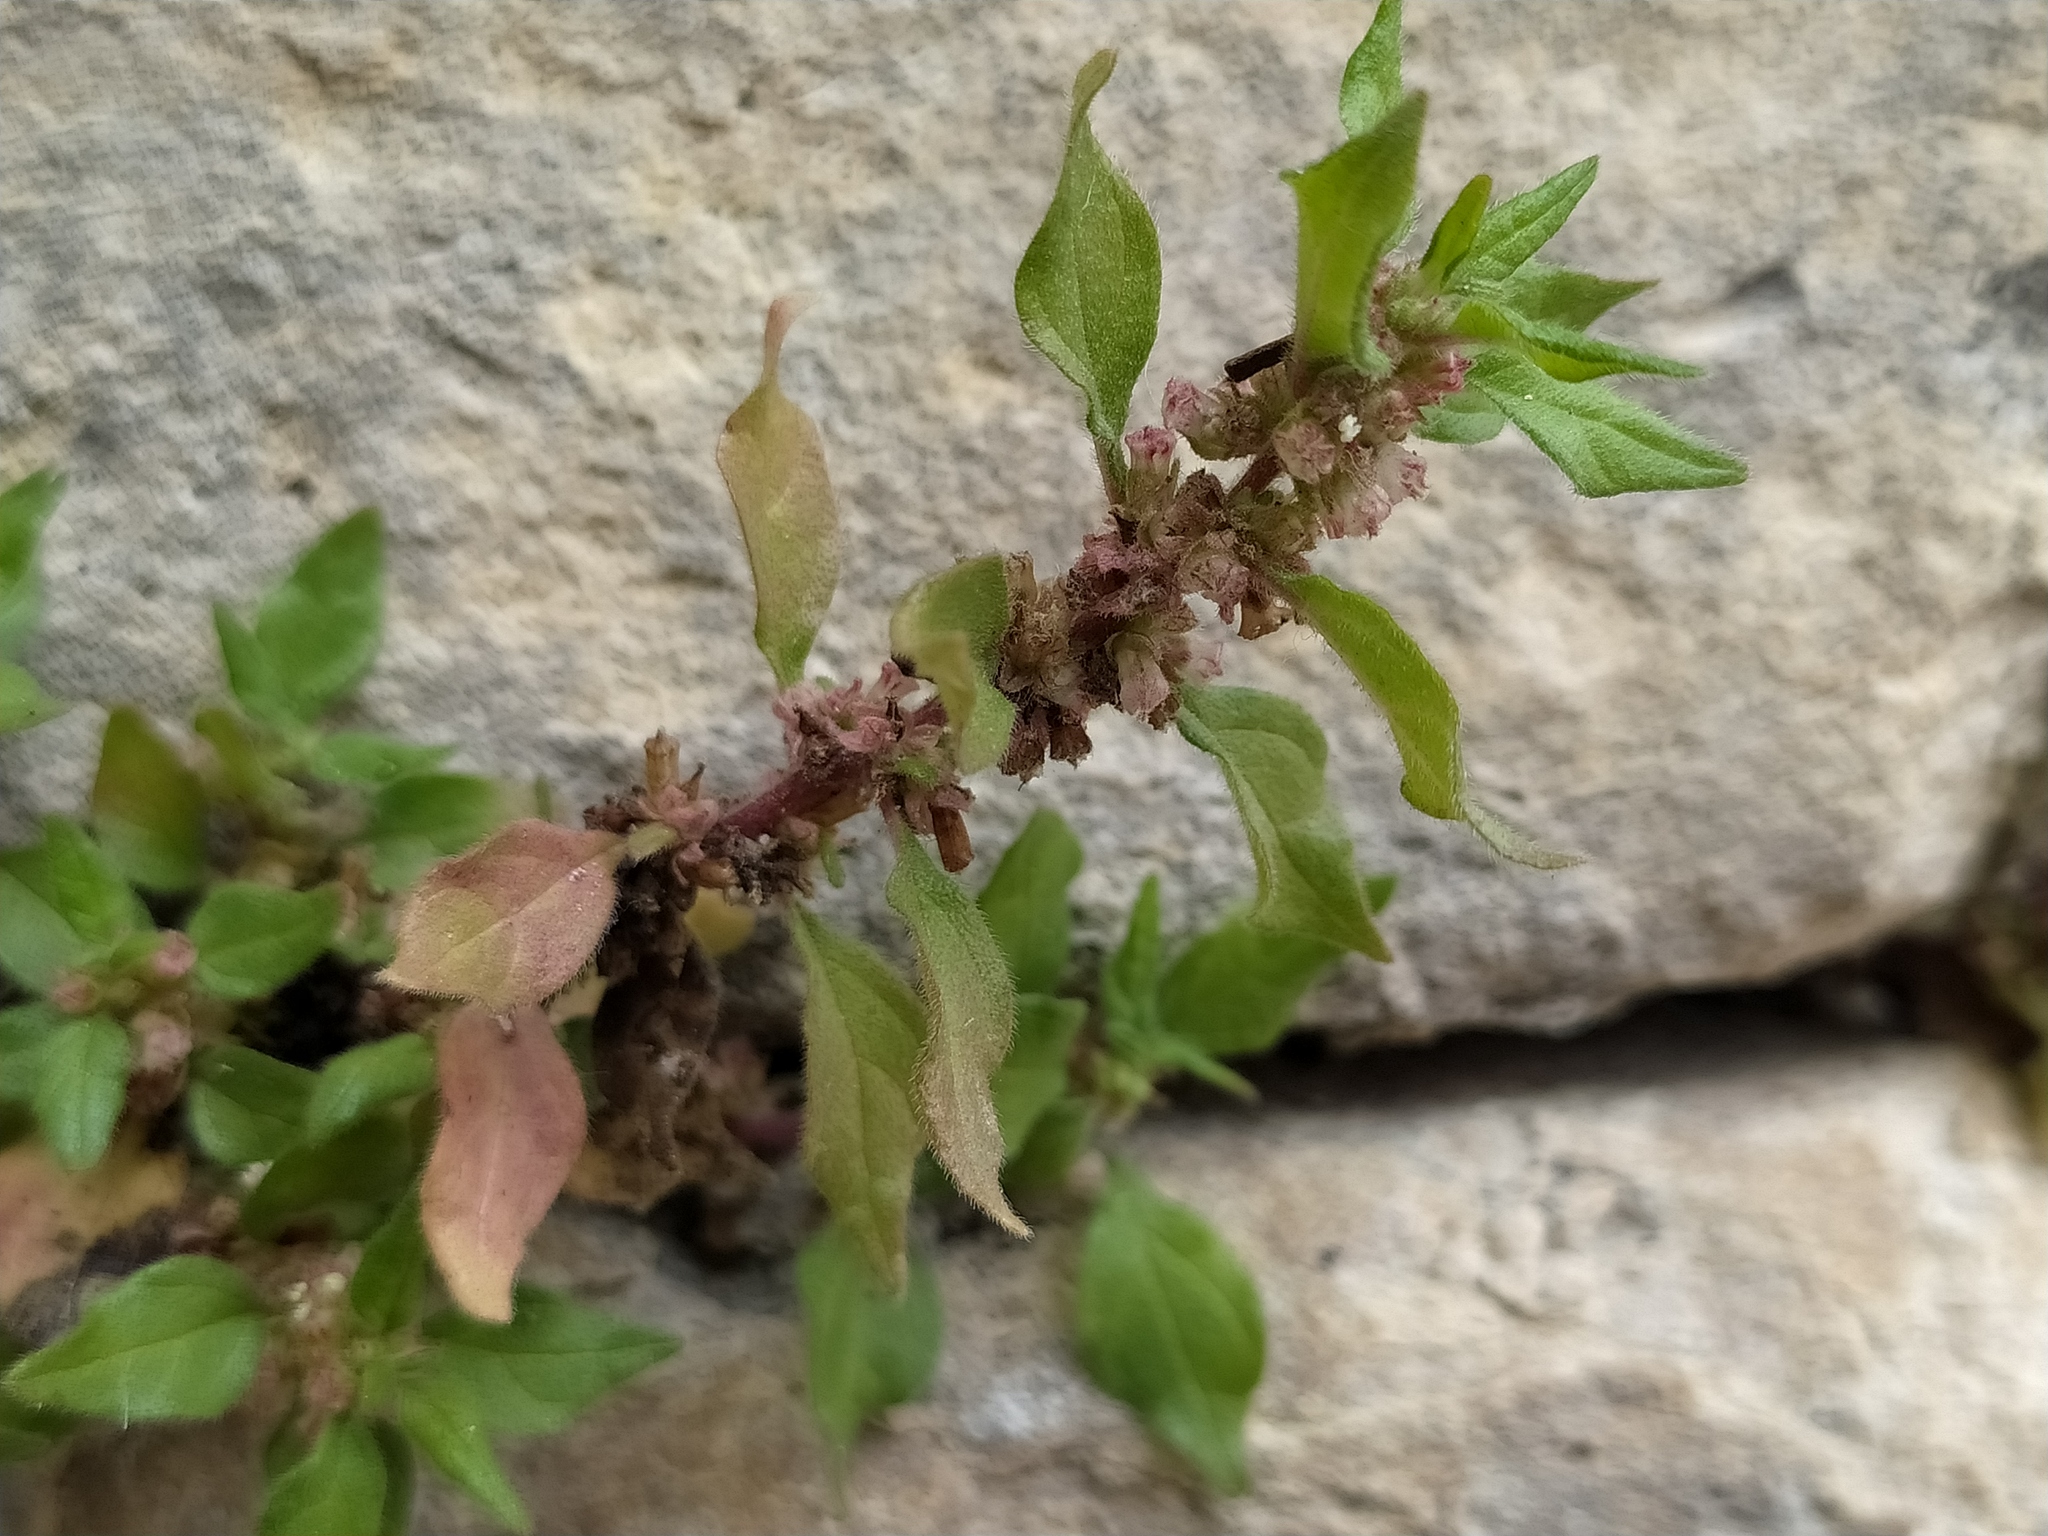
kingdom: Plantae
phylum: Tracheophyta
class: Magnoliopsida
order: Rosales
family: Urticaceae
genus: Parietaria
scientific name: Parietaria judaica
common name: Pellitory-of-the-wall
